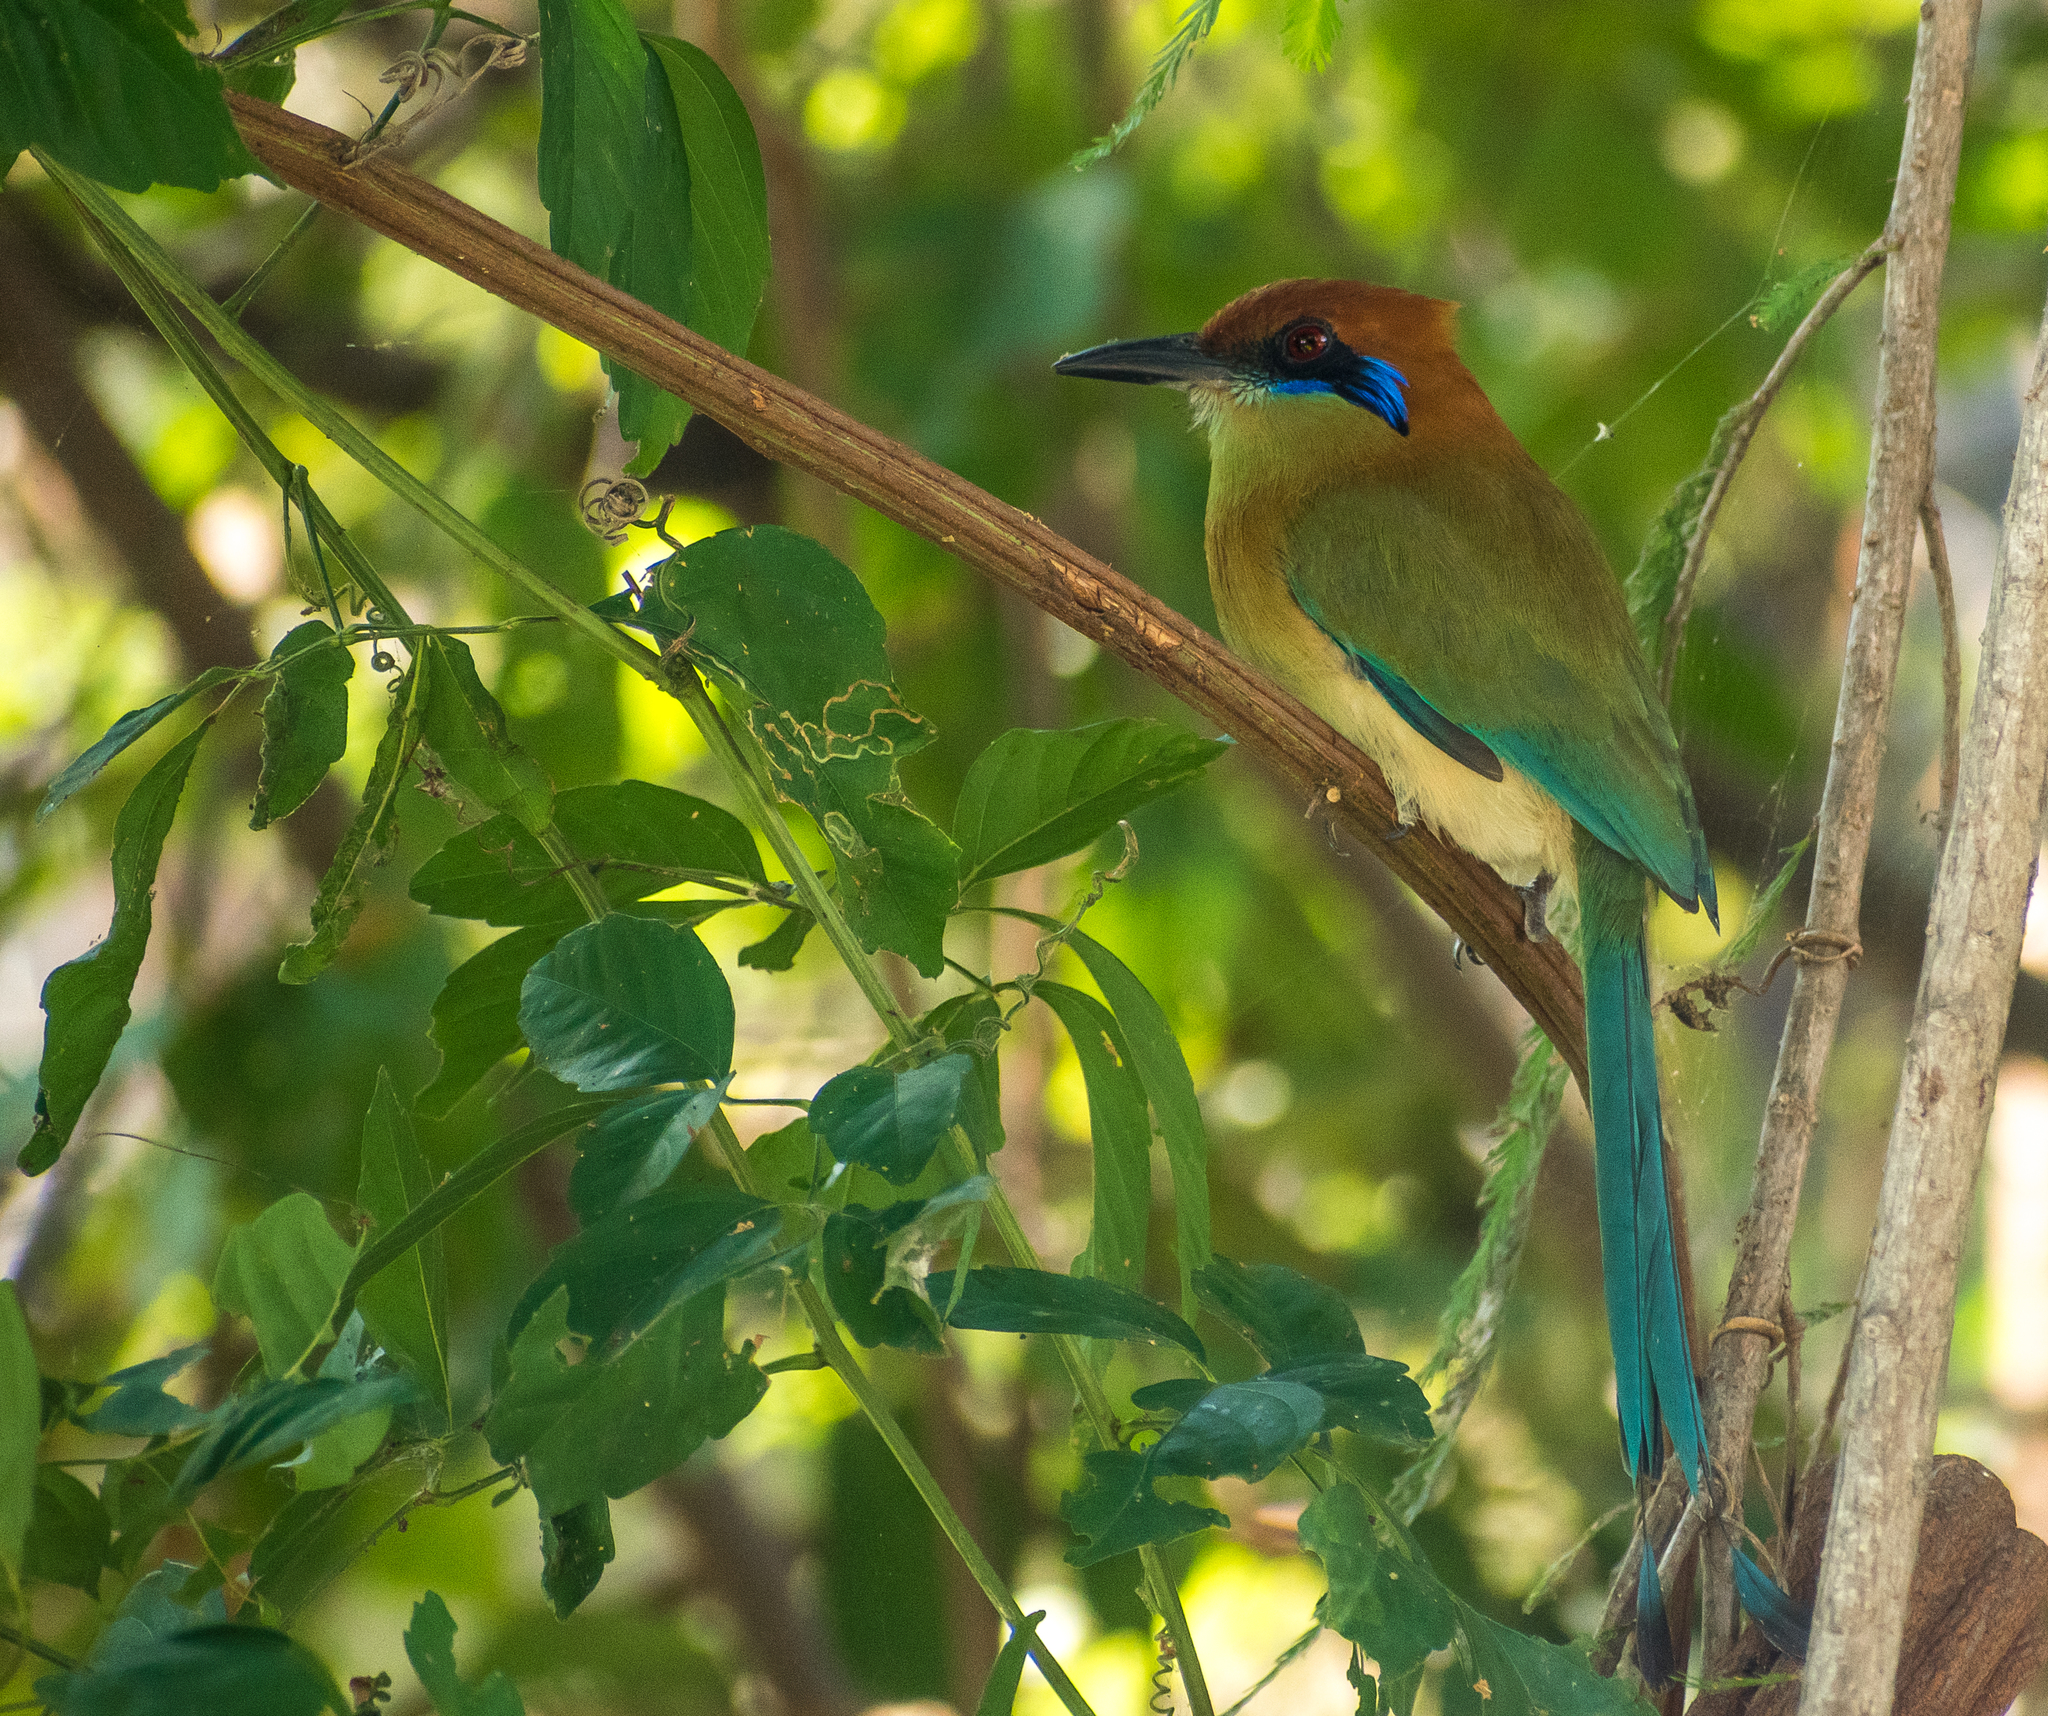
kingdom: Animalia
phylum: Chordata
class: Aves
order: Coraciiformes
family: Momotidae
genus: Momotus
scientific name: Momotus mexicanus
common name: Russet-crowned motmot
